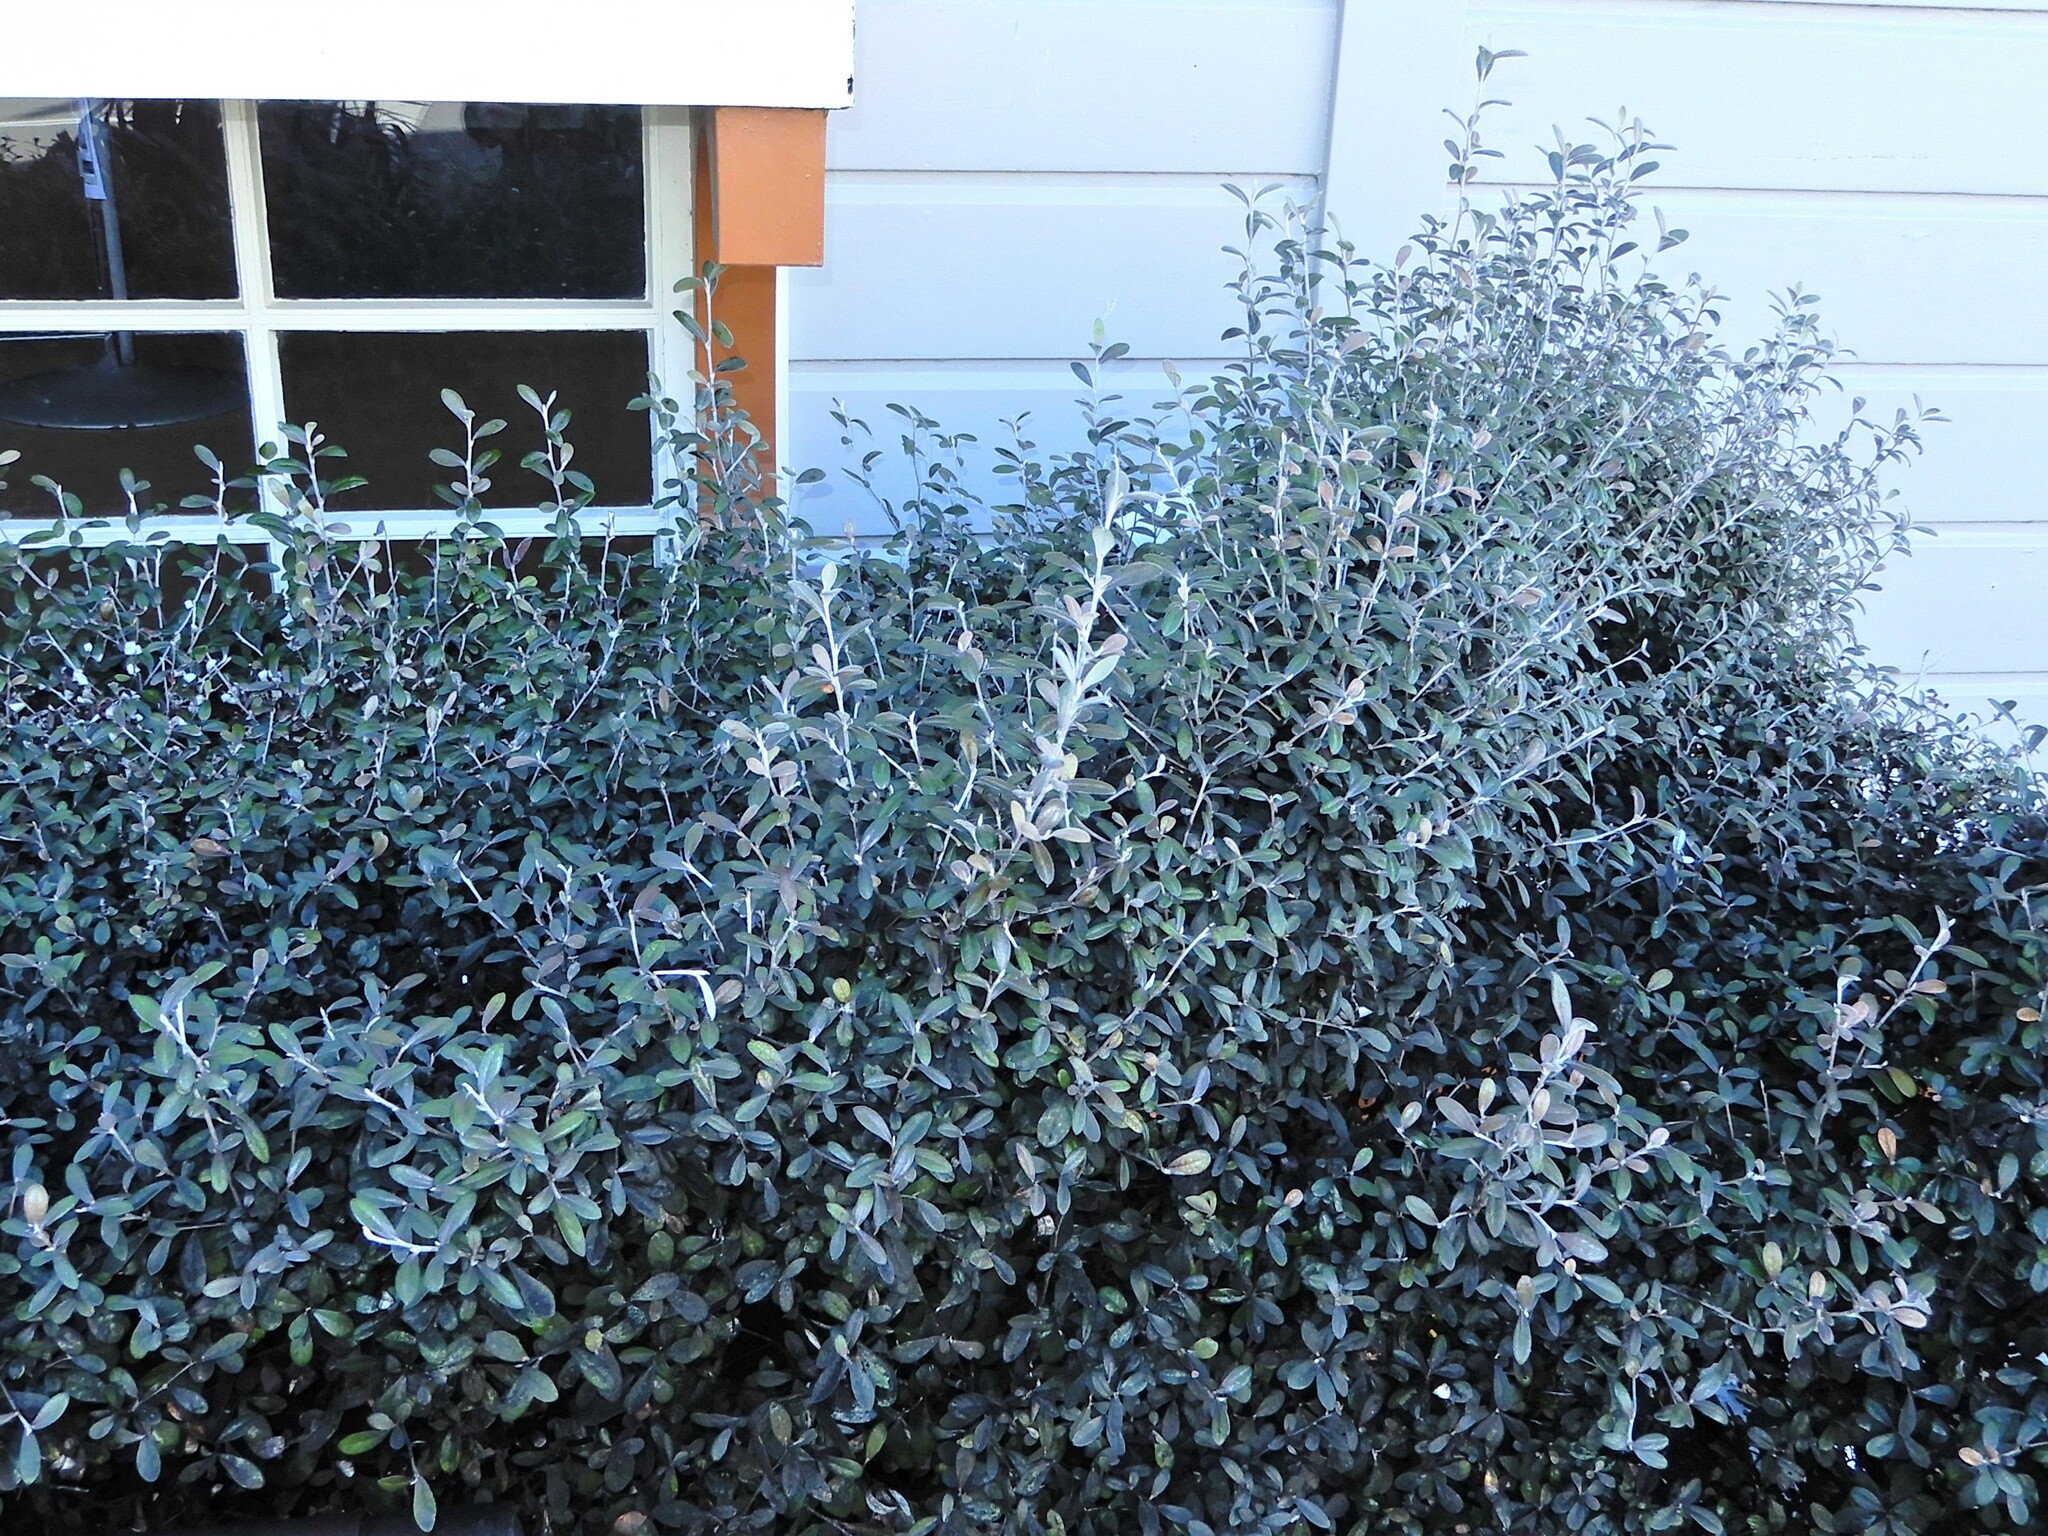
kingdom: Plantae
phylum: Tracheophyta
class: Magnoliopsida
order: Asterales
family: Argophyllaceae
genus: Corokia
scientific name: Corokia virgata
